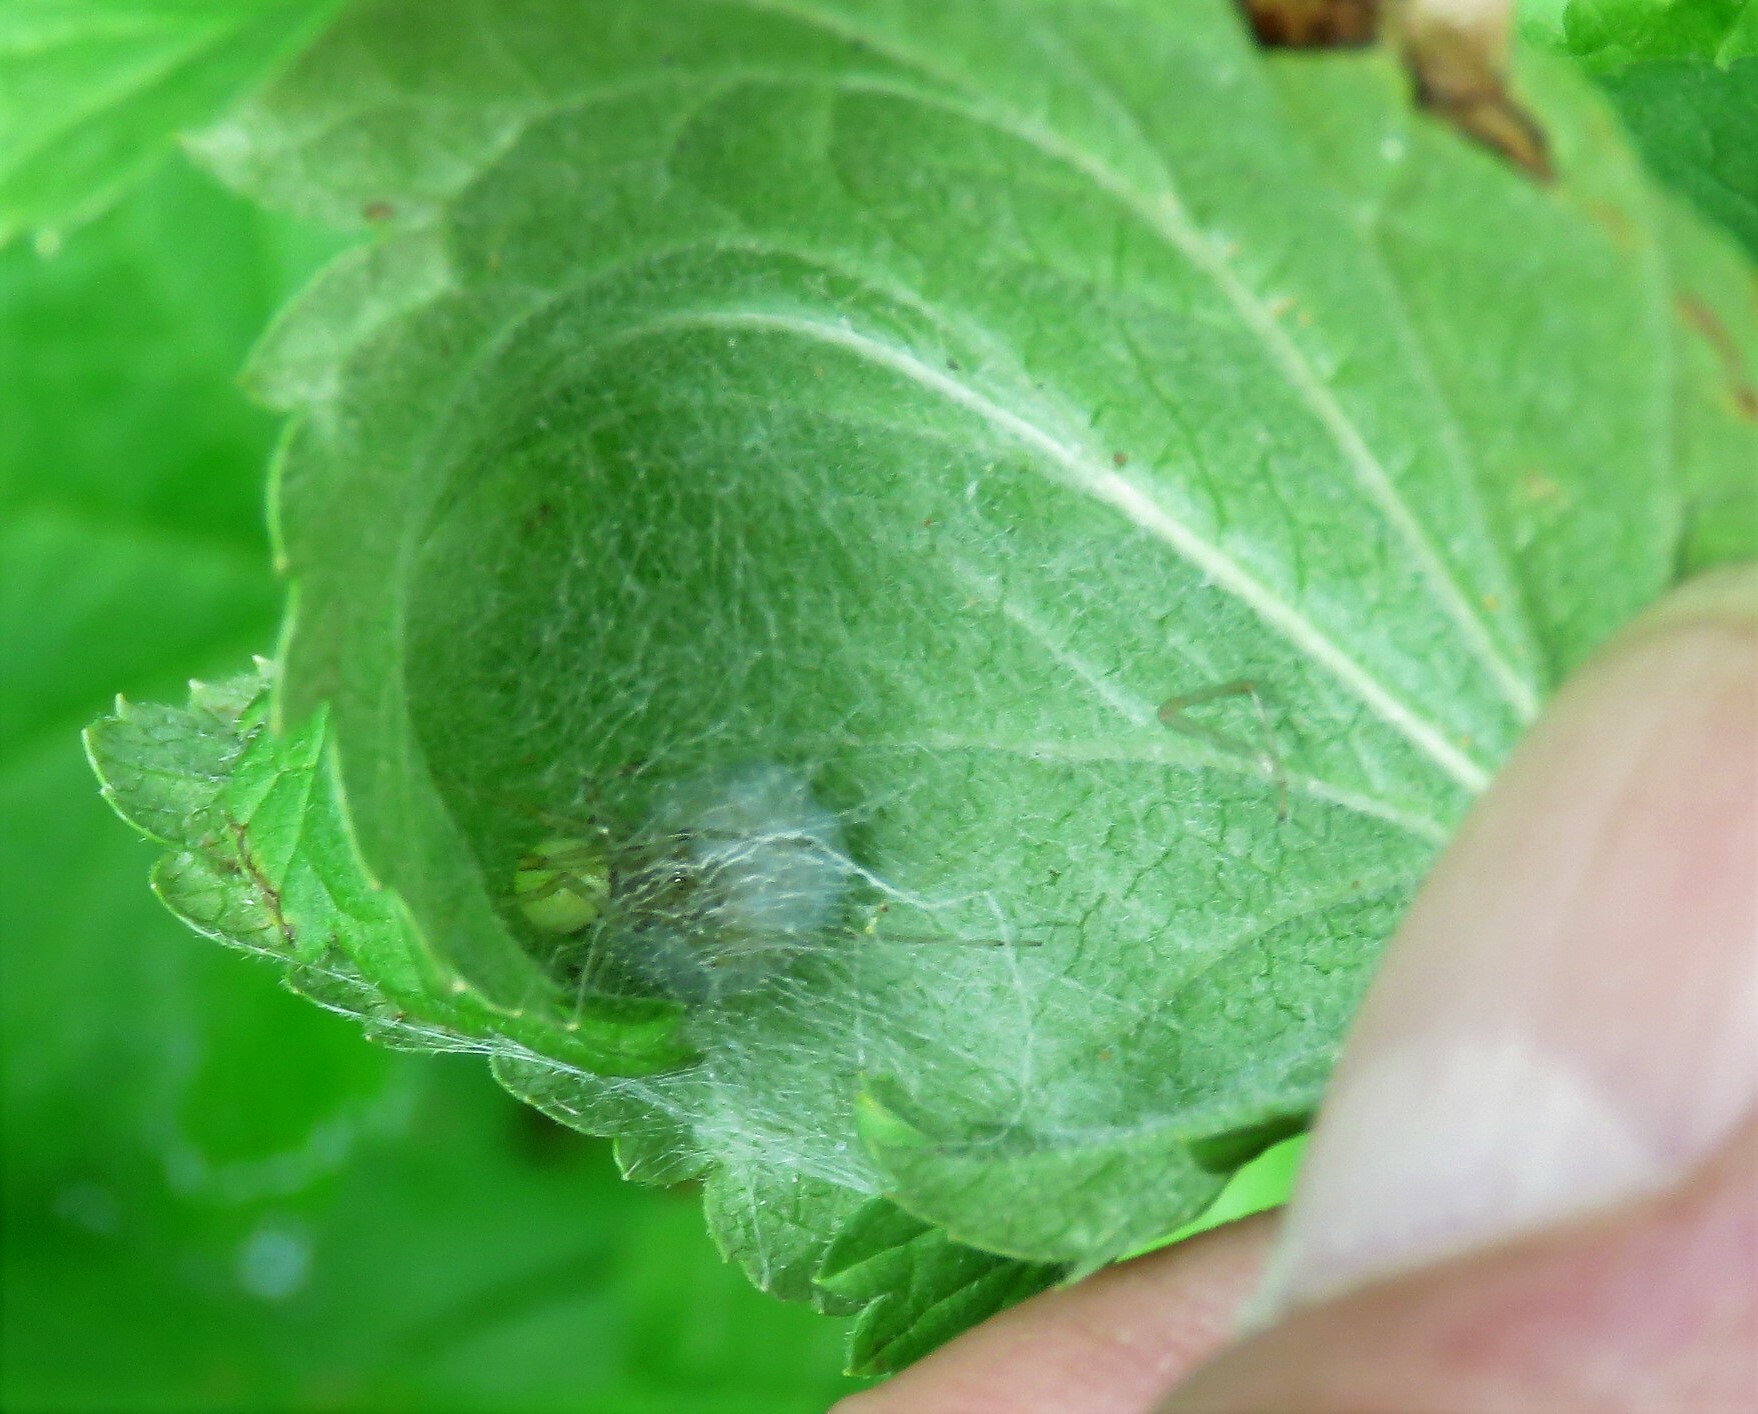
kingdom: Animalia
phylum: Arthropoda
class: Arachnida
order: Araneae
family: Theridiidae
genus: Enoplognatha
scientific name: Enoplognatha ovata
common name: Common candy-striped spider
